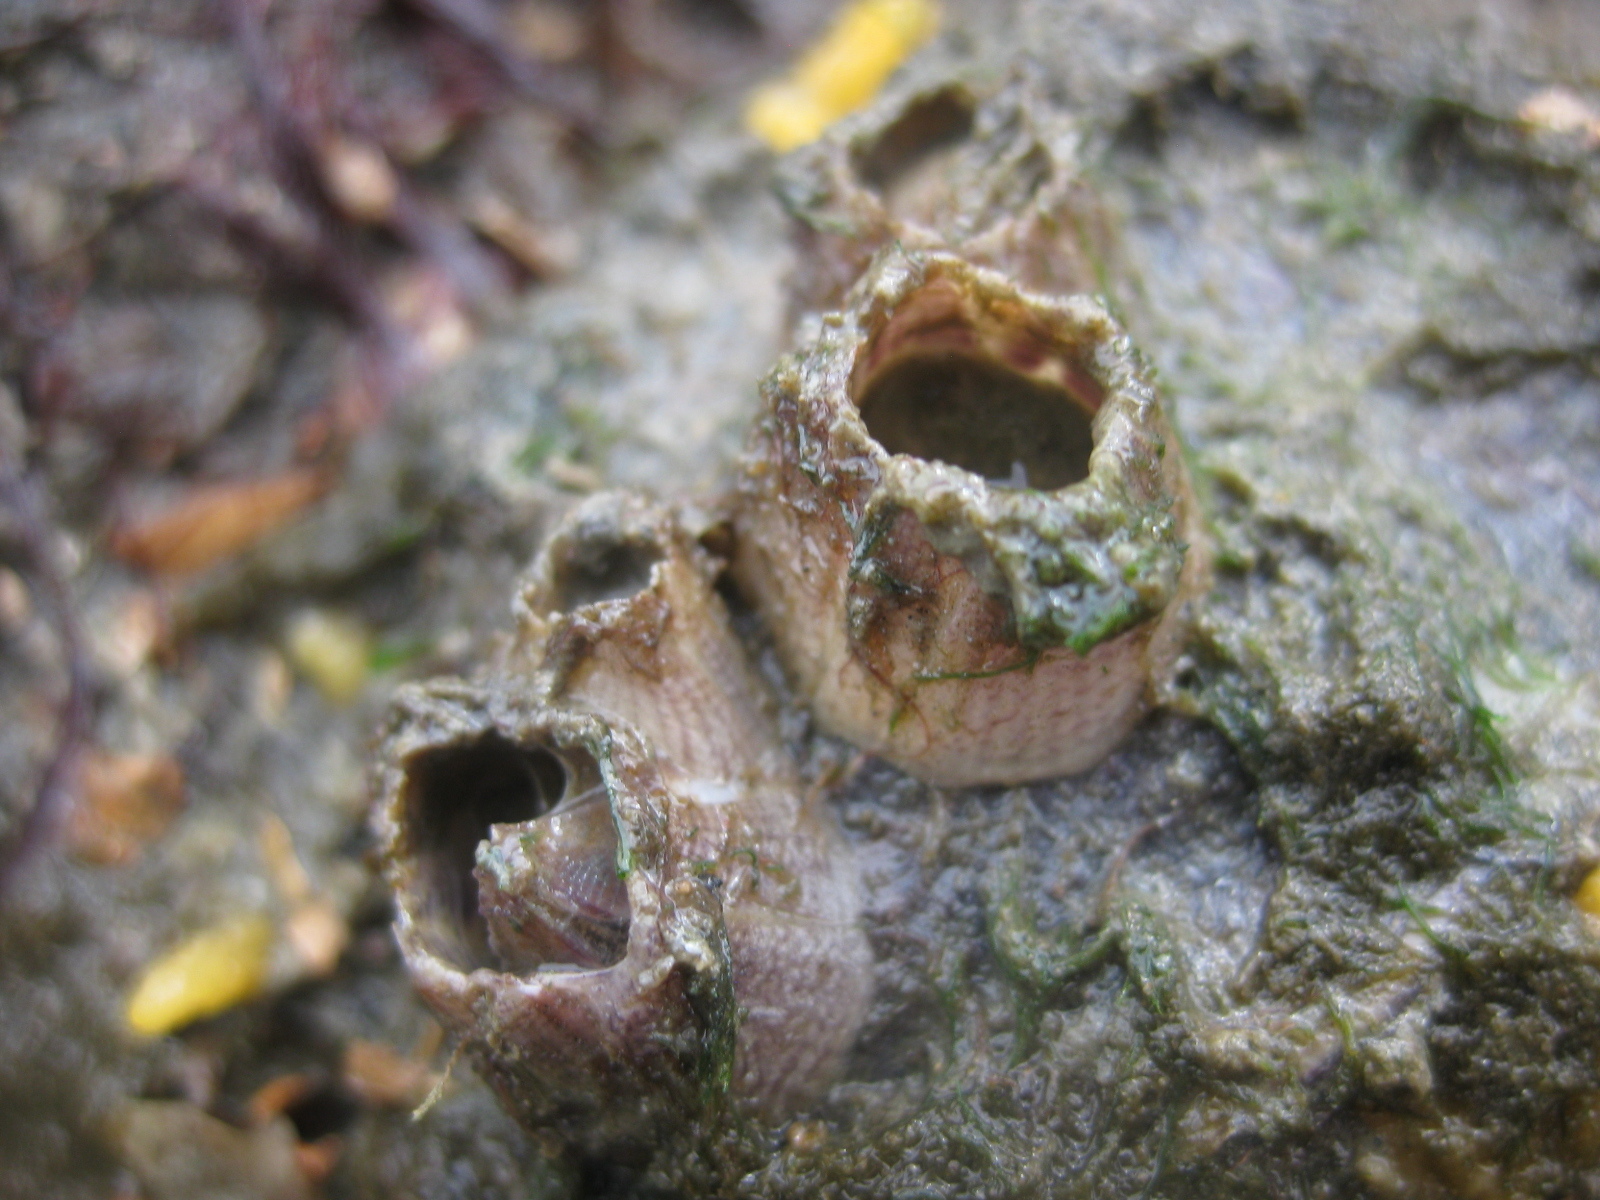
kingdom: Animalia
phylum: Arthropoda
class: Maxillopoda
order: Sessilia
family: Balanidae
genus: Fistulobalanus
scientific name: Fistulobalanus kondakovi
